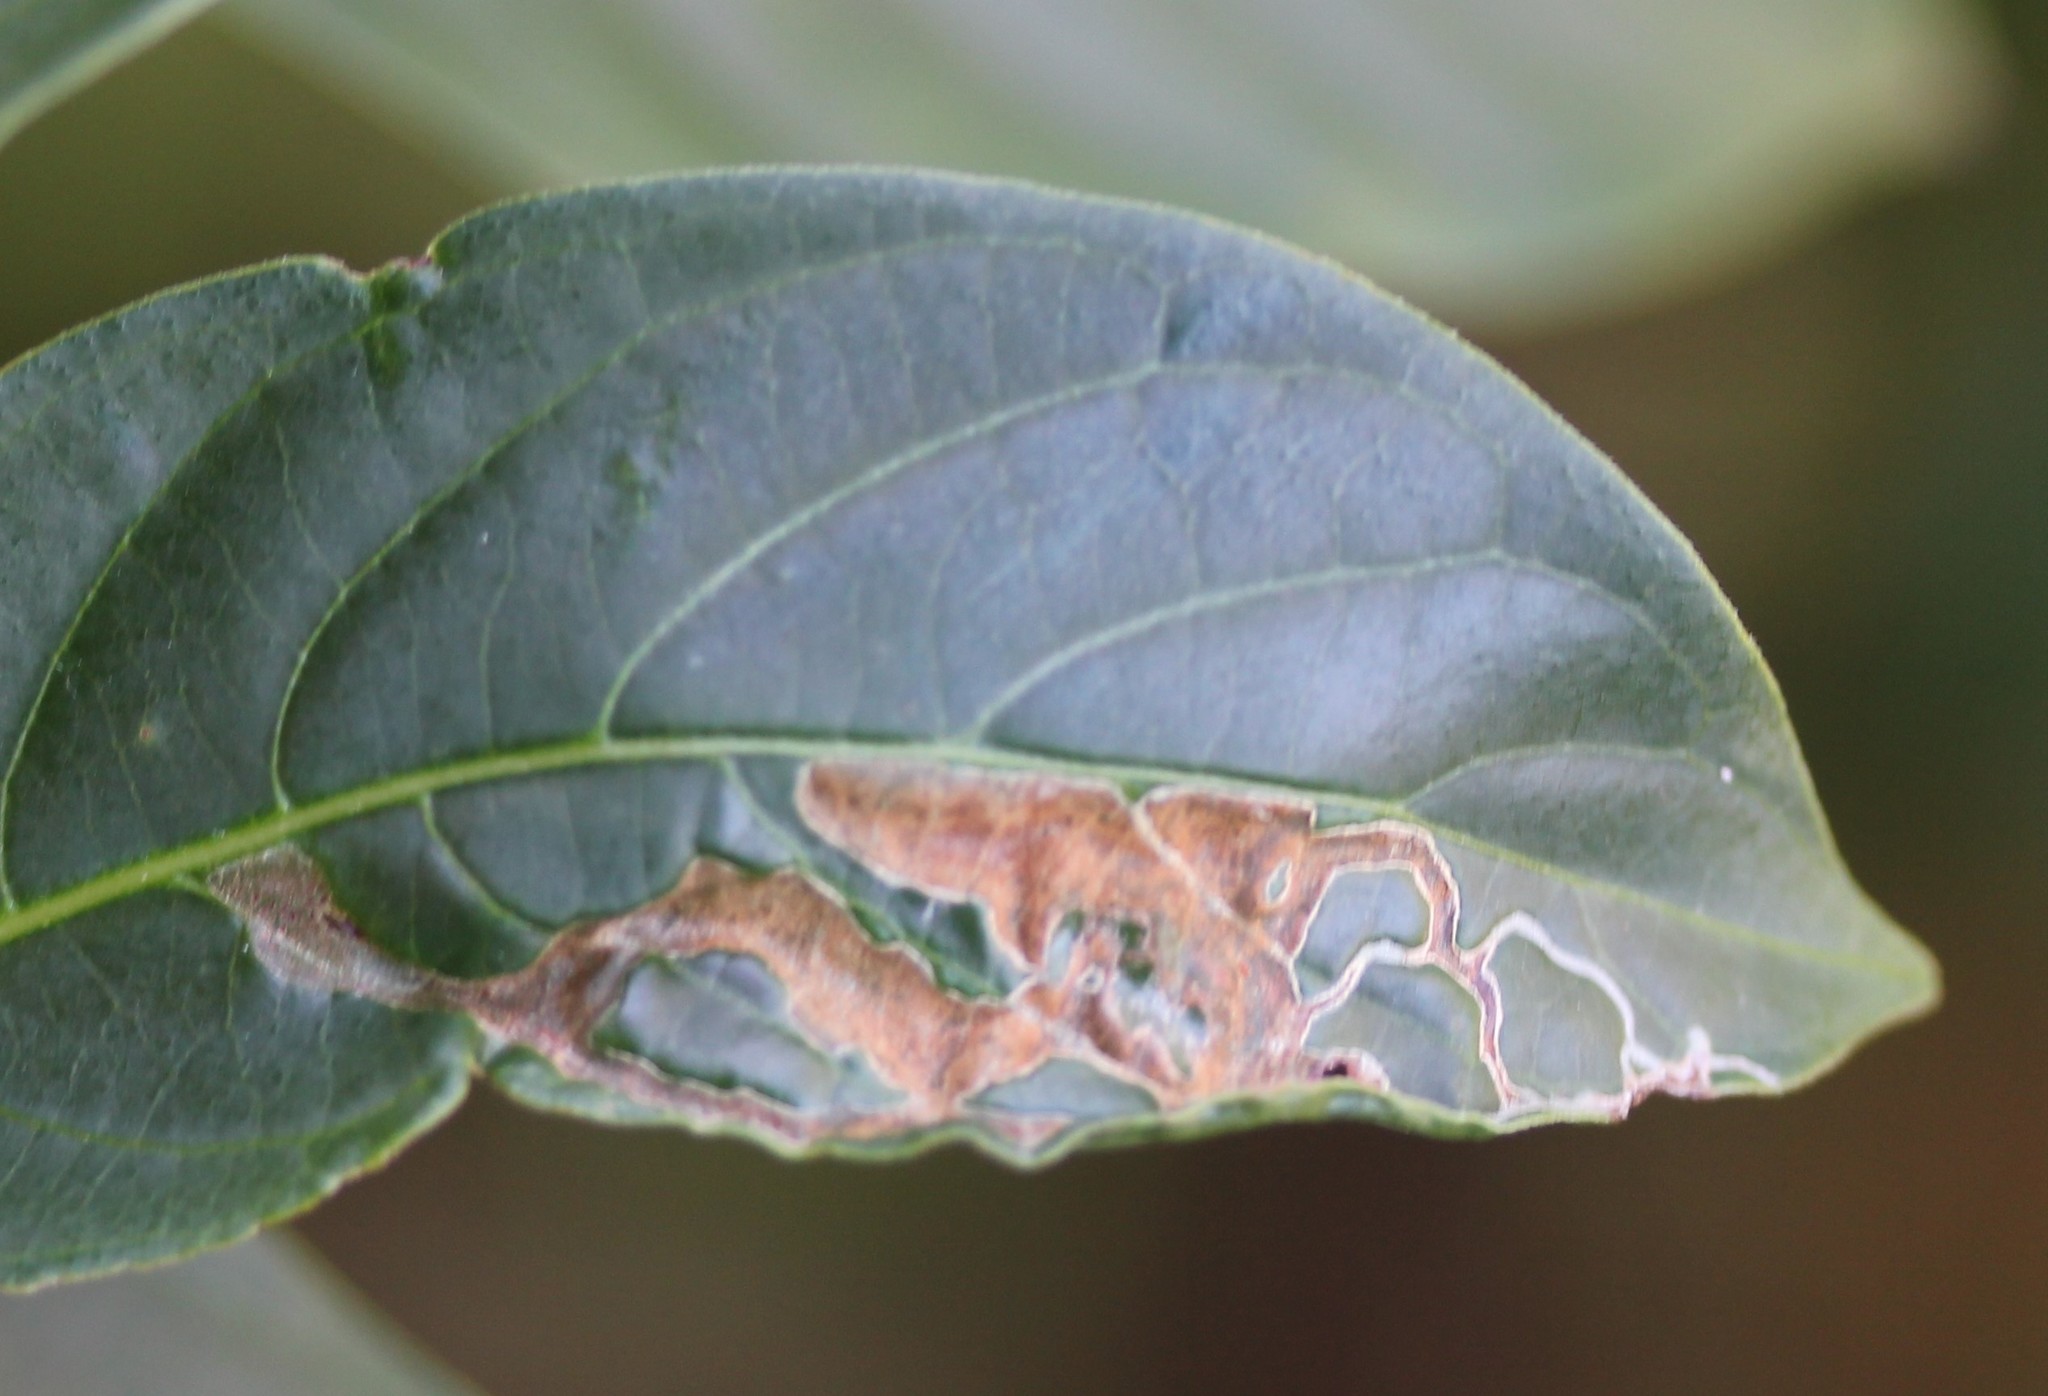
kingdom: Animalia
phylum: Arthropoda
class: Insecta
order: Diptera
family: Agromyzidae
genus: Liriomyza
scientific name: Liriomyza schmidti
